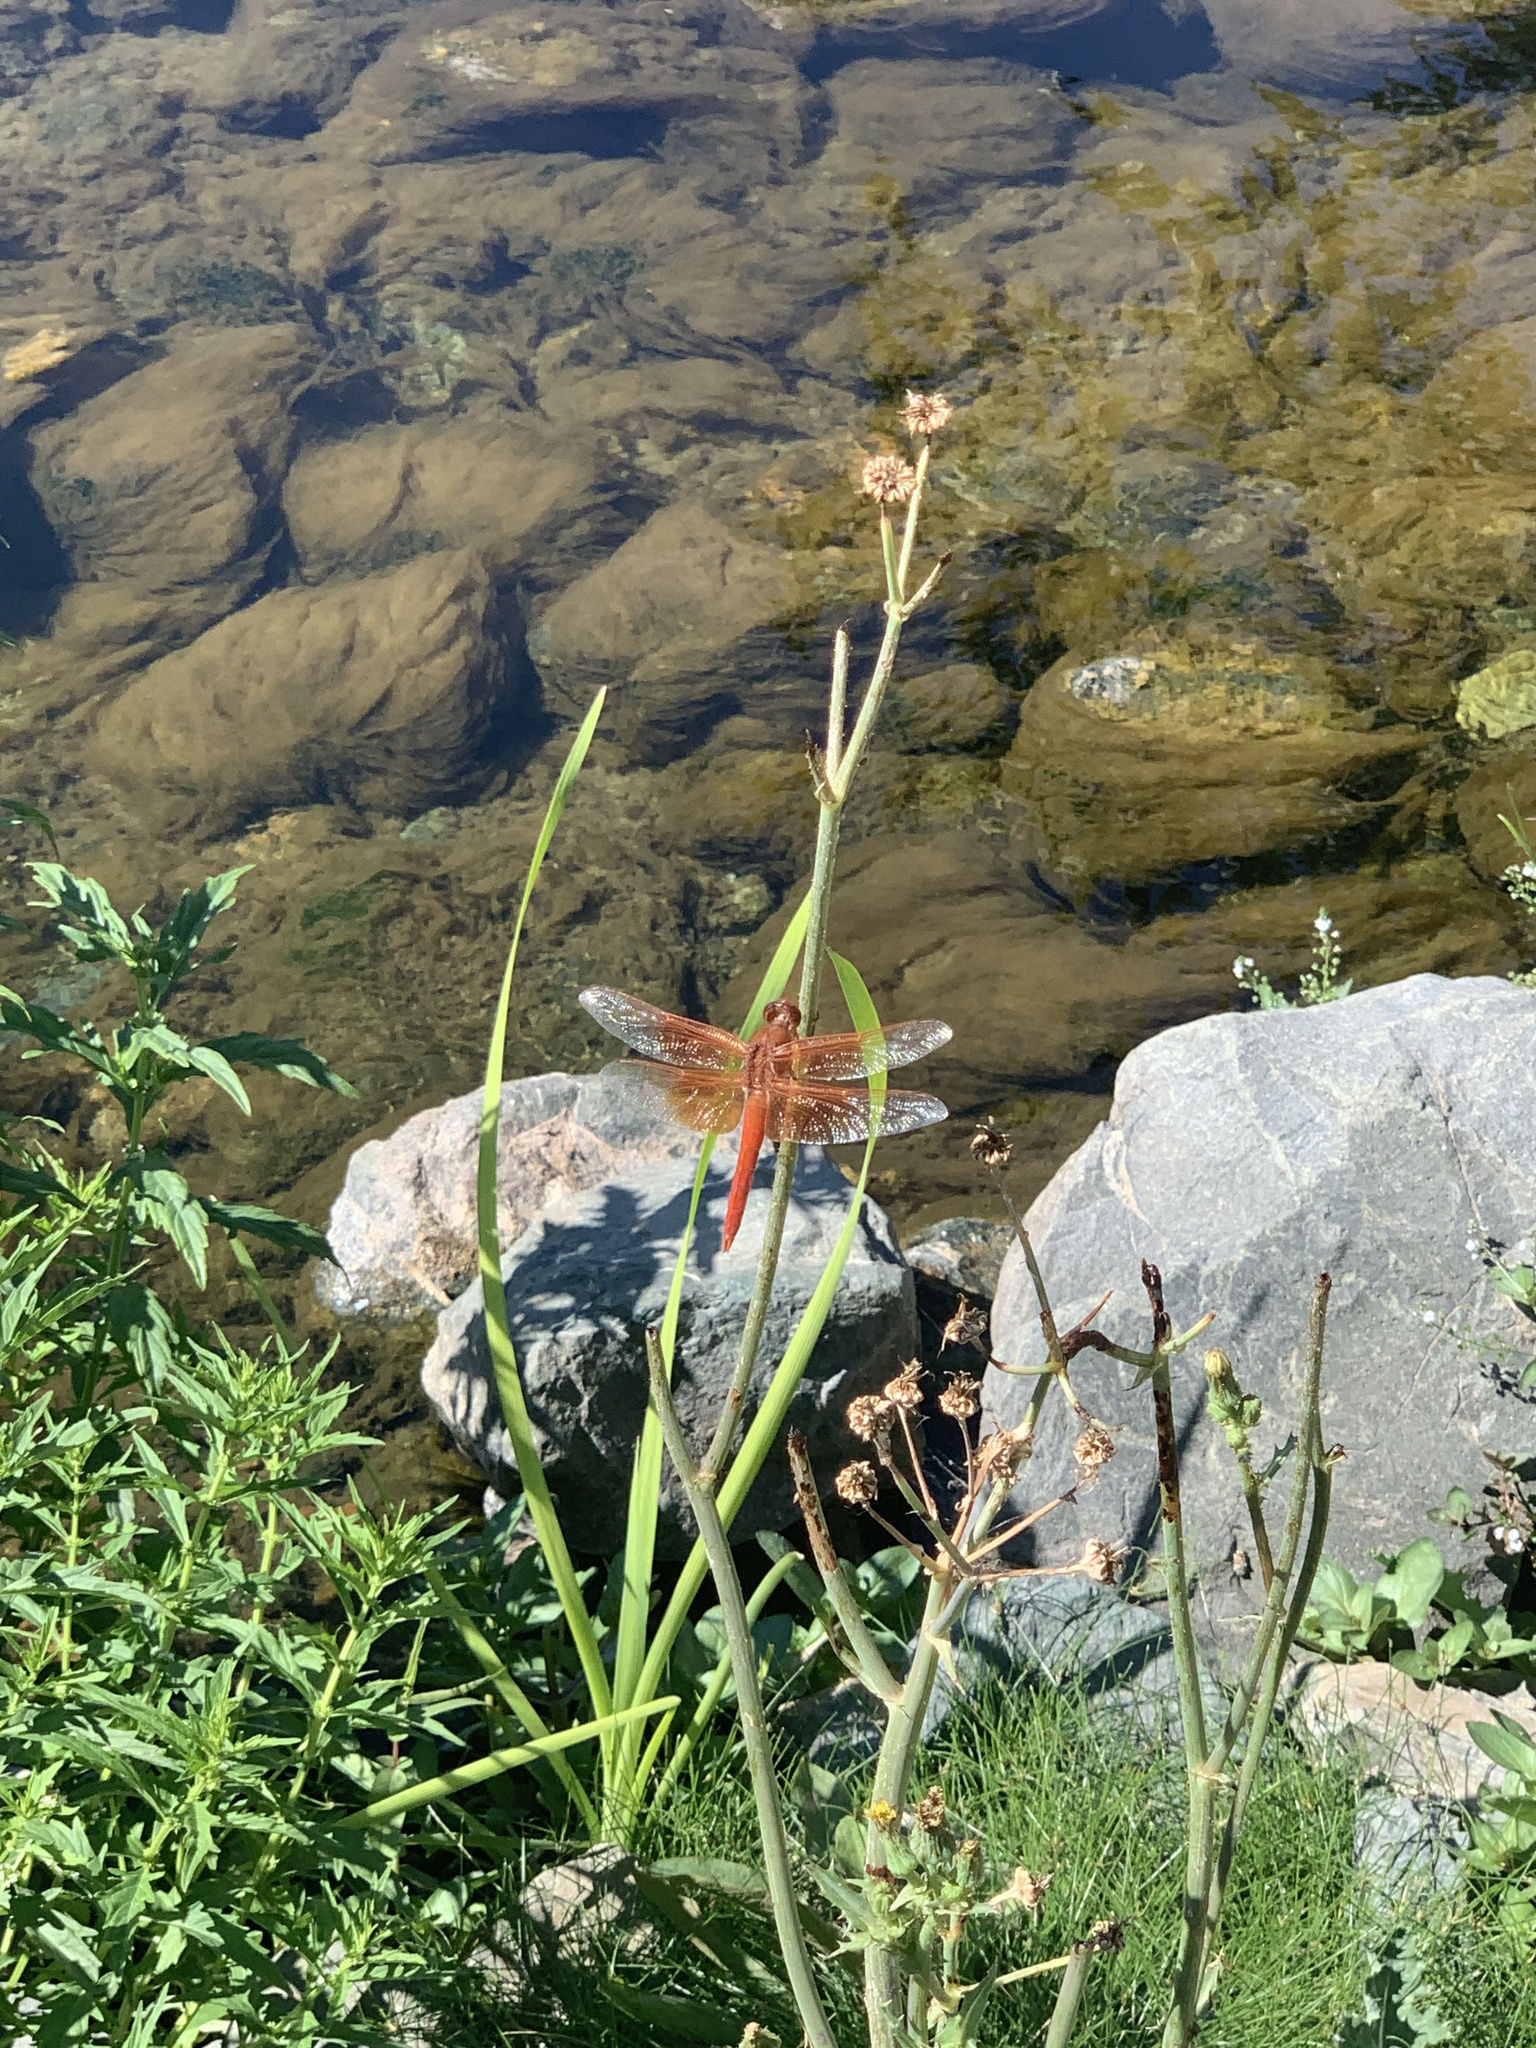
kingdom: Animalia
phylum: Arthropoda
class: Insecta
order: Odonata
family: Libellulidae
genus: Libellula
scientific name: Libellula saturata
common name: Flame skimmer
